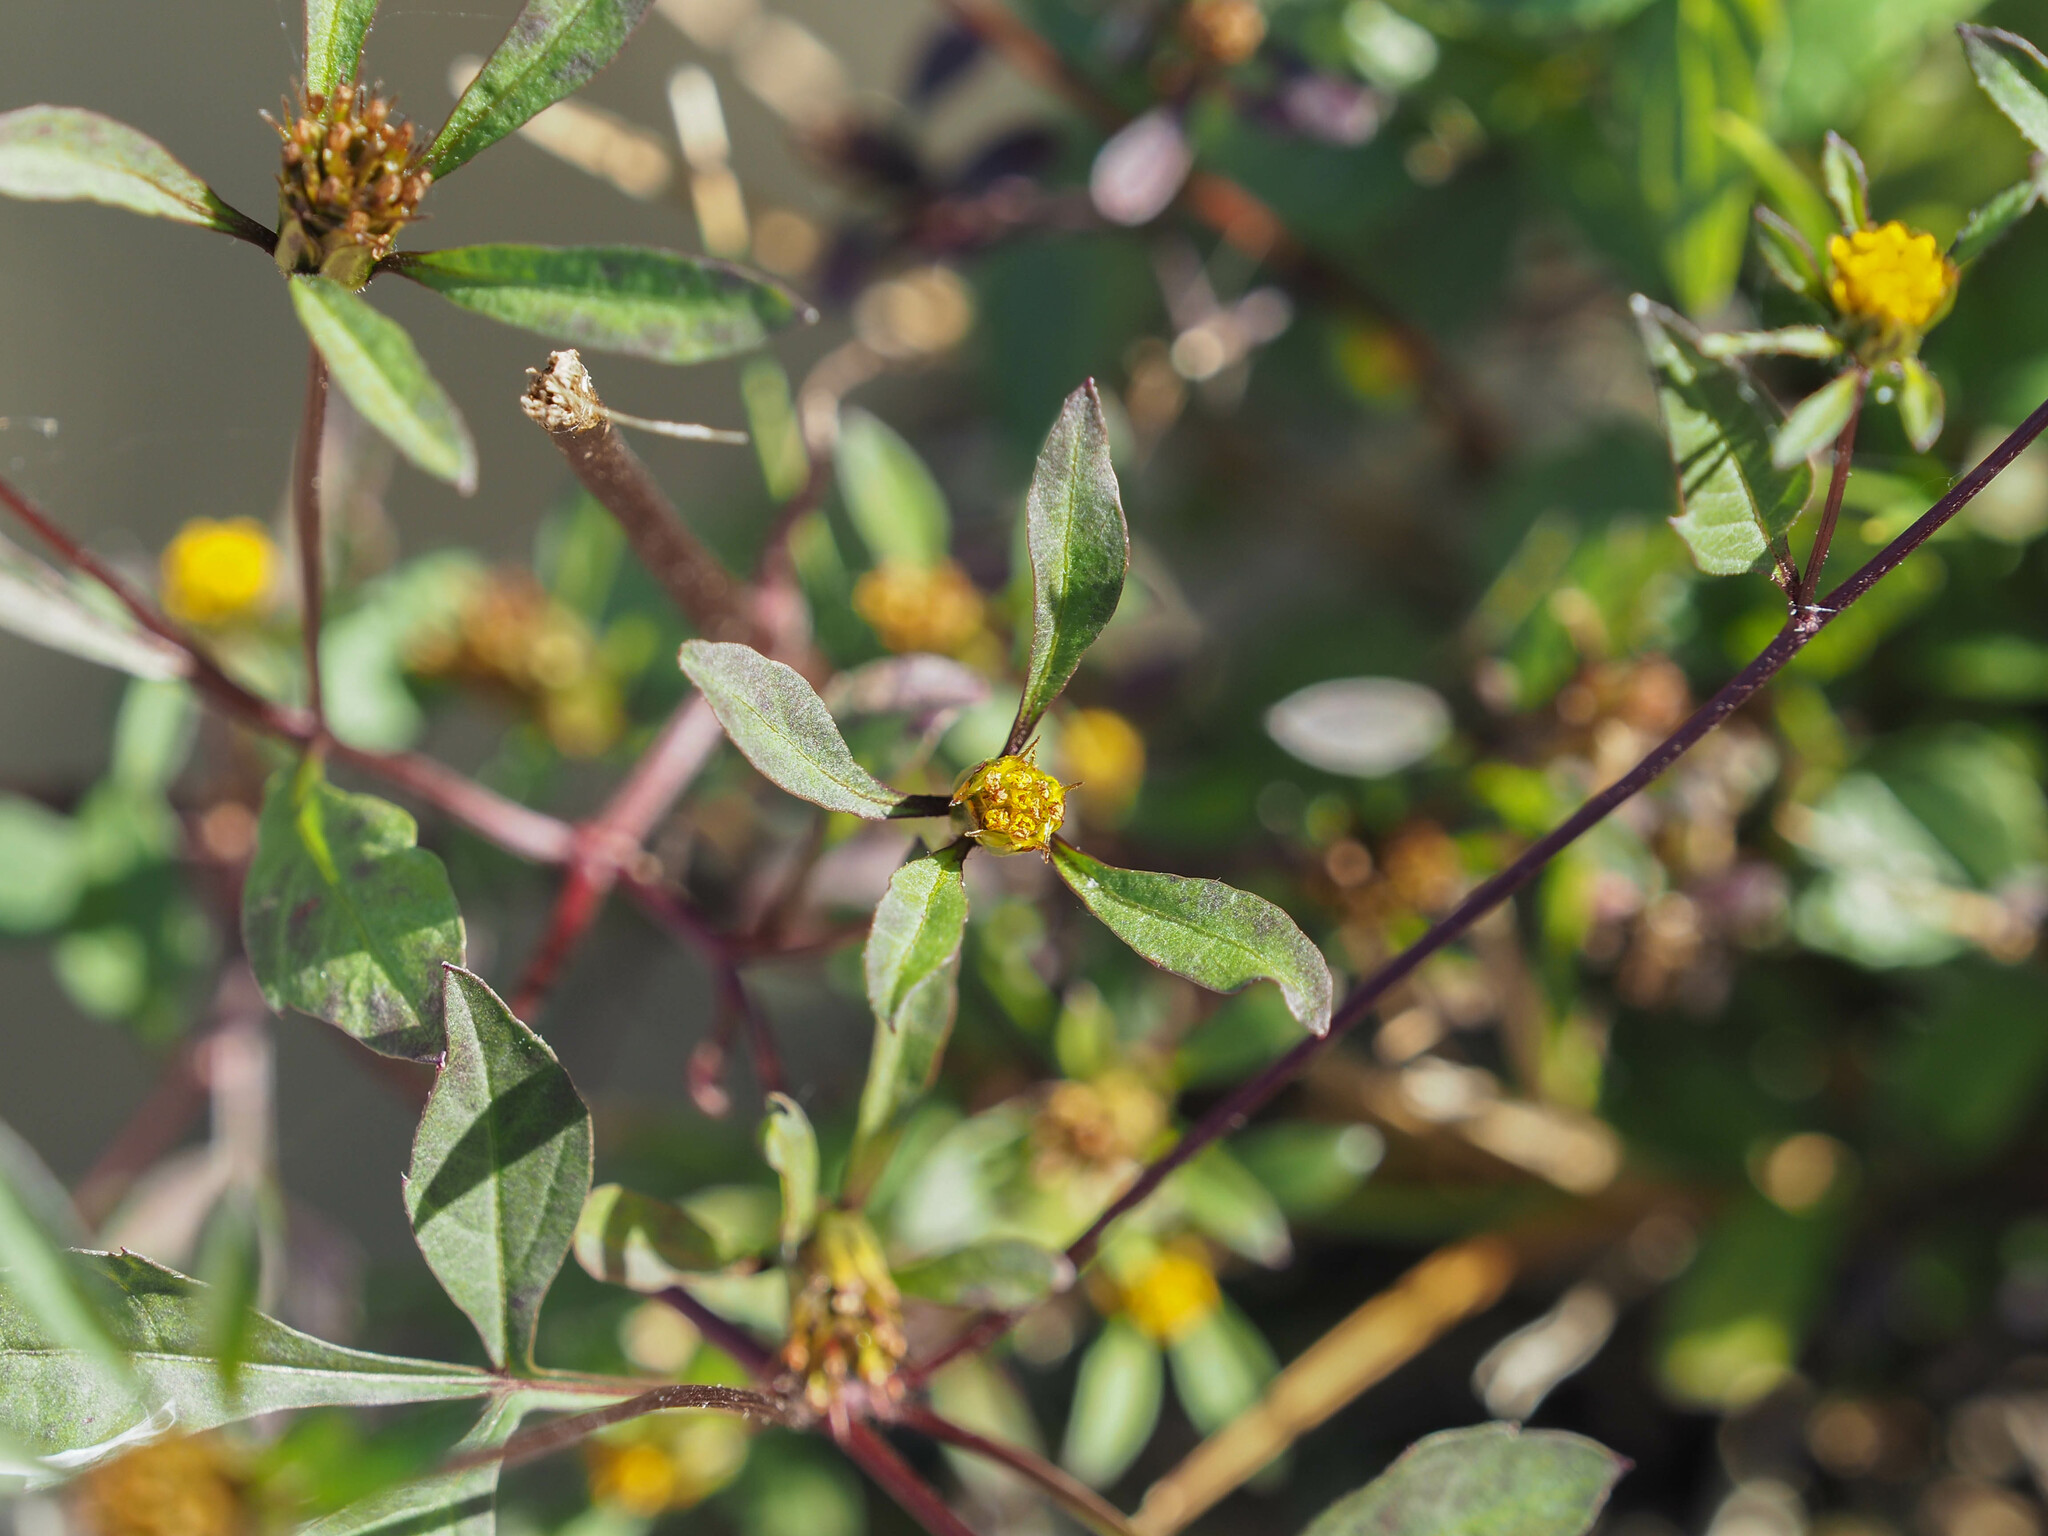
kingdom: Plantae
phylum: Tracheophyta
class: Magnoliopsida
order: Asterales
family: Asteraceae
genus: Bidens
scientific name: Bidens connata
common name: London bur-marigold
